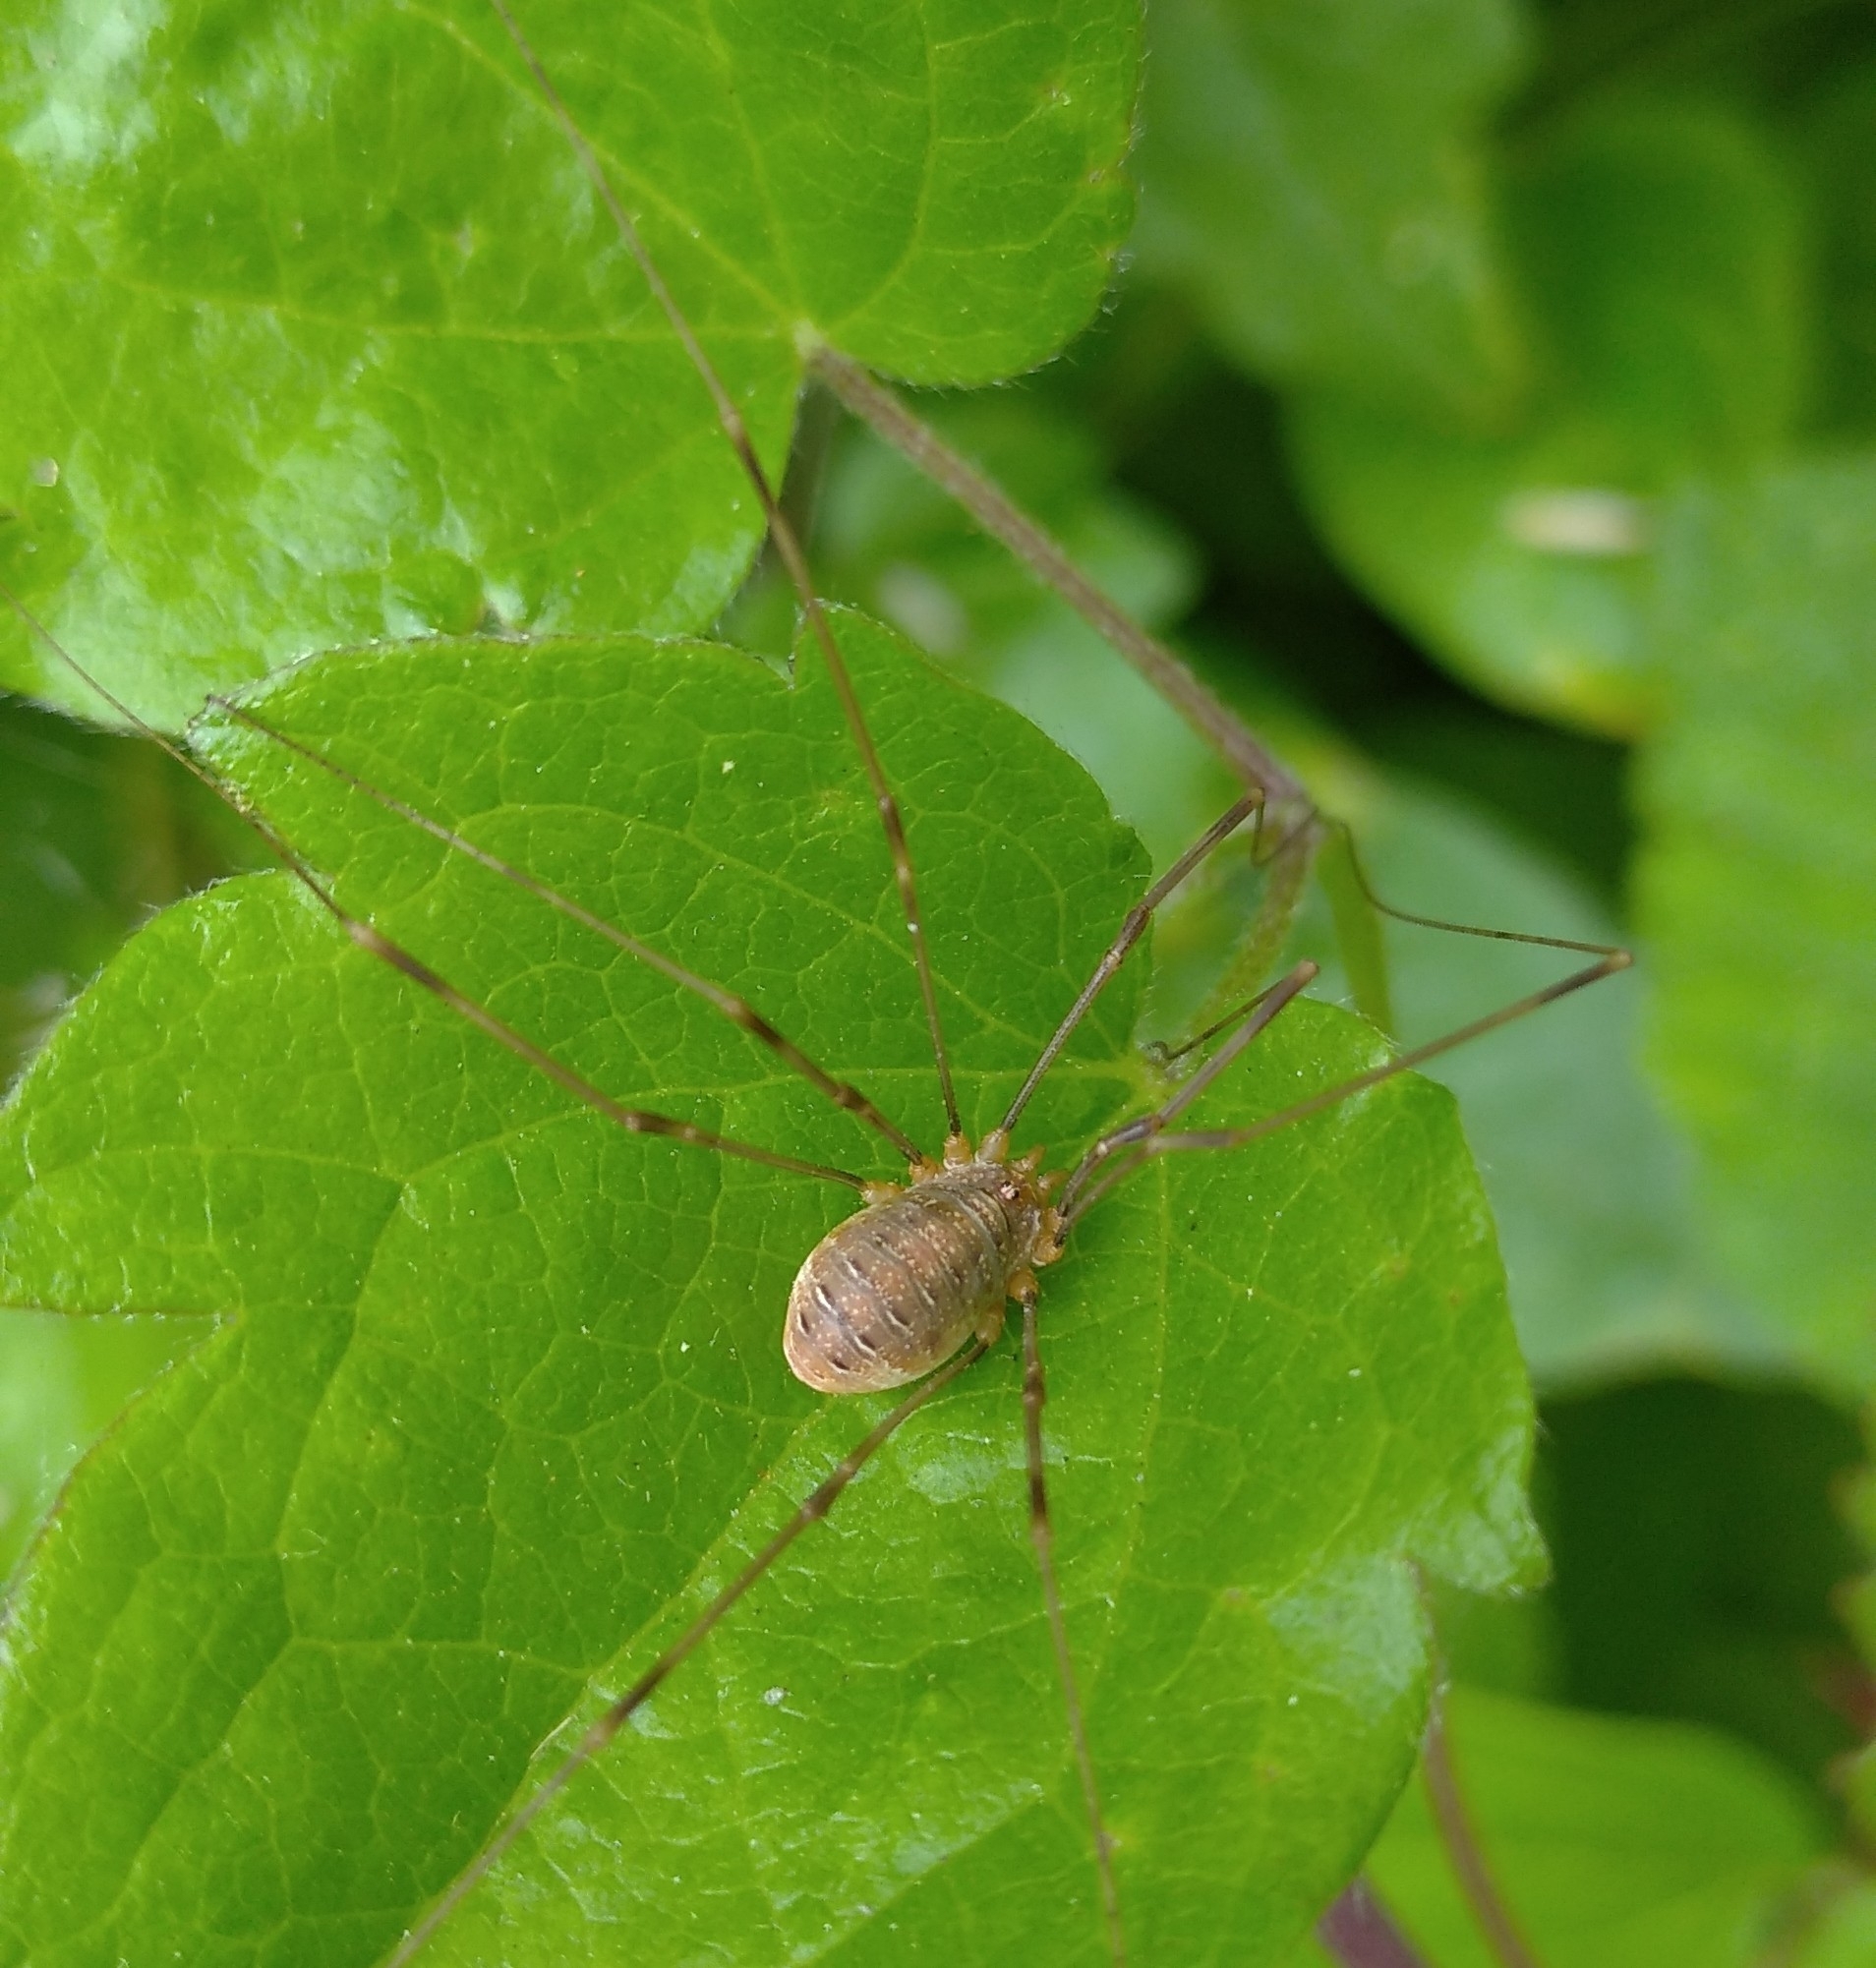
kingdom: Animalia
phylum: Arthropoda
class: Arachnida
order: Opiliones
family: Phalangiidae
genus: Opilio
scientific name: Opilio canestrinii
